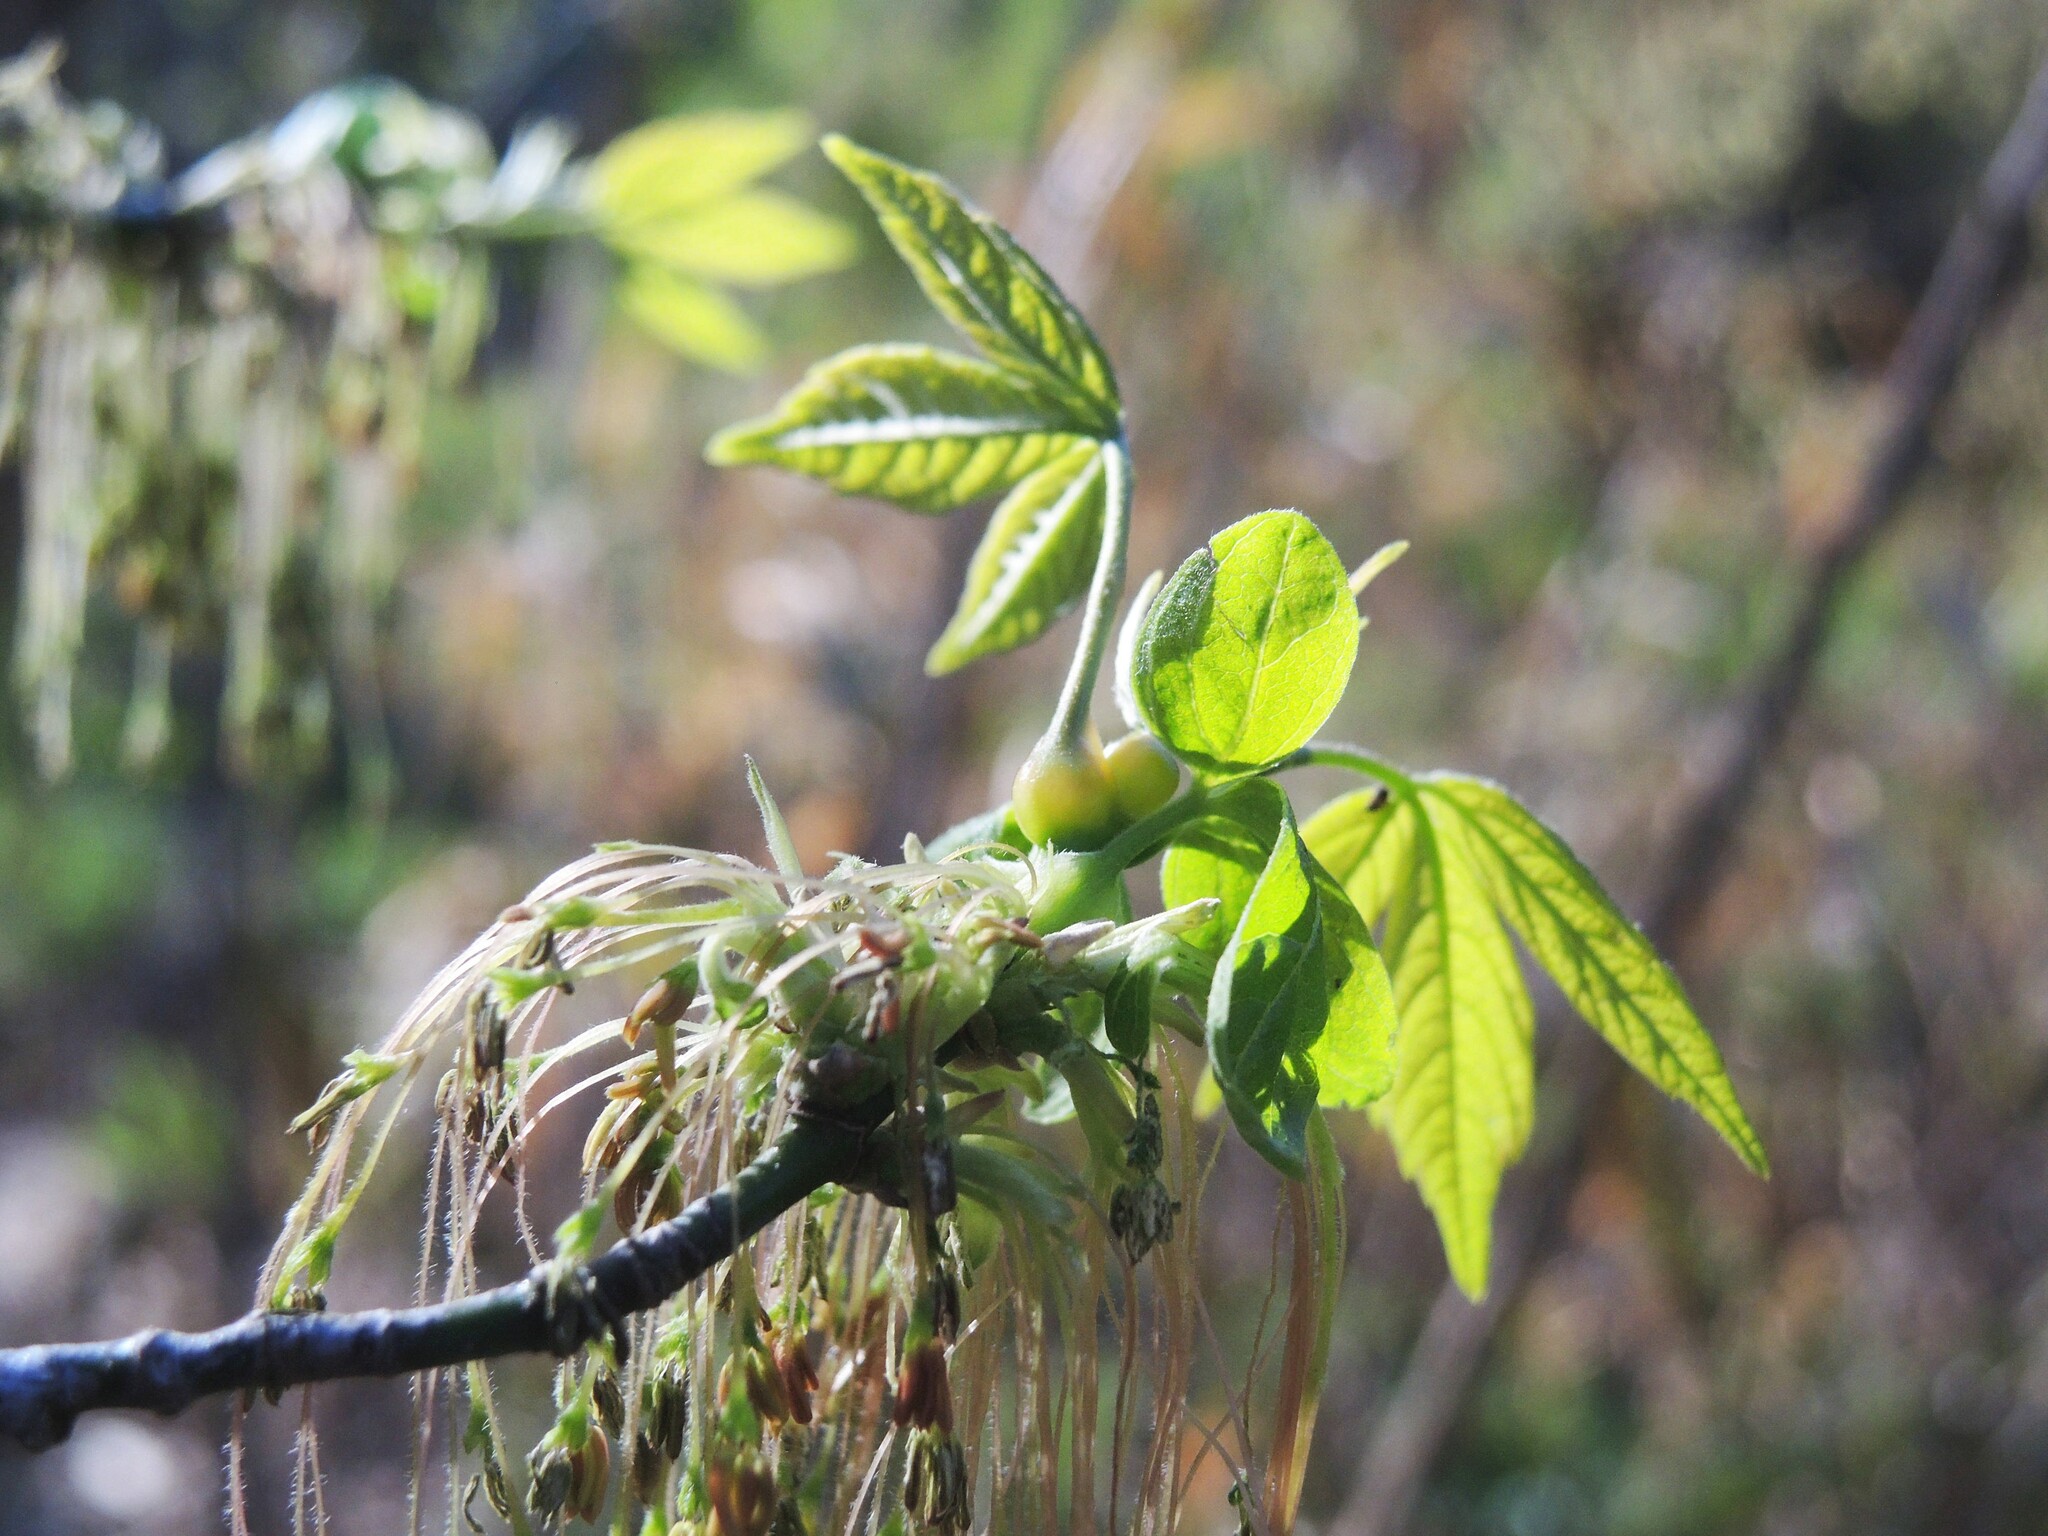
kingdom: Animalia
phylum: Arthropoda
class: Insecta
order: Diptera
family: Cecidomyiidae
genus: Contarinia
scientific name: Contarinia negundinis
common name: Boxelder budgall midge
